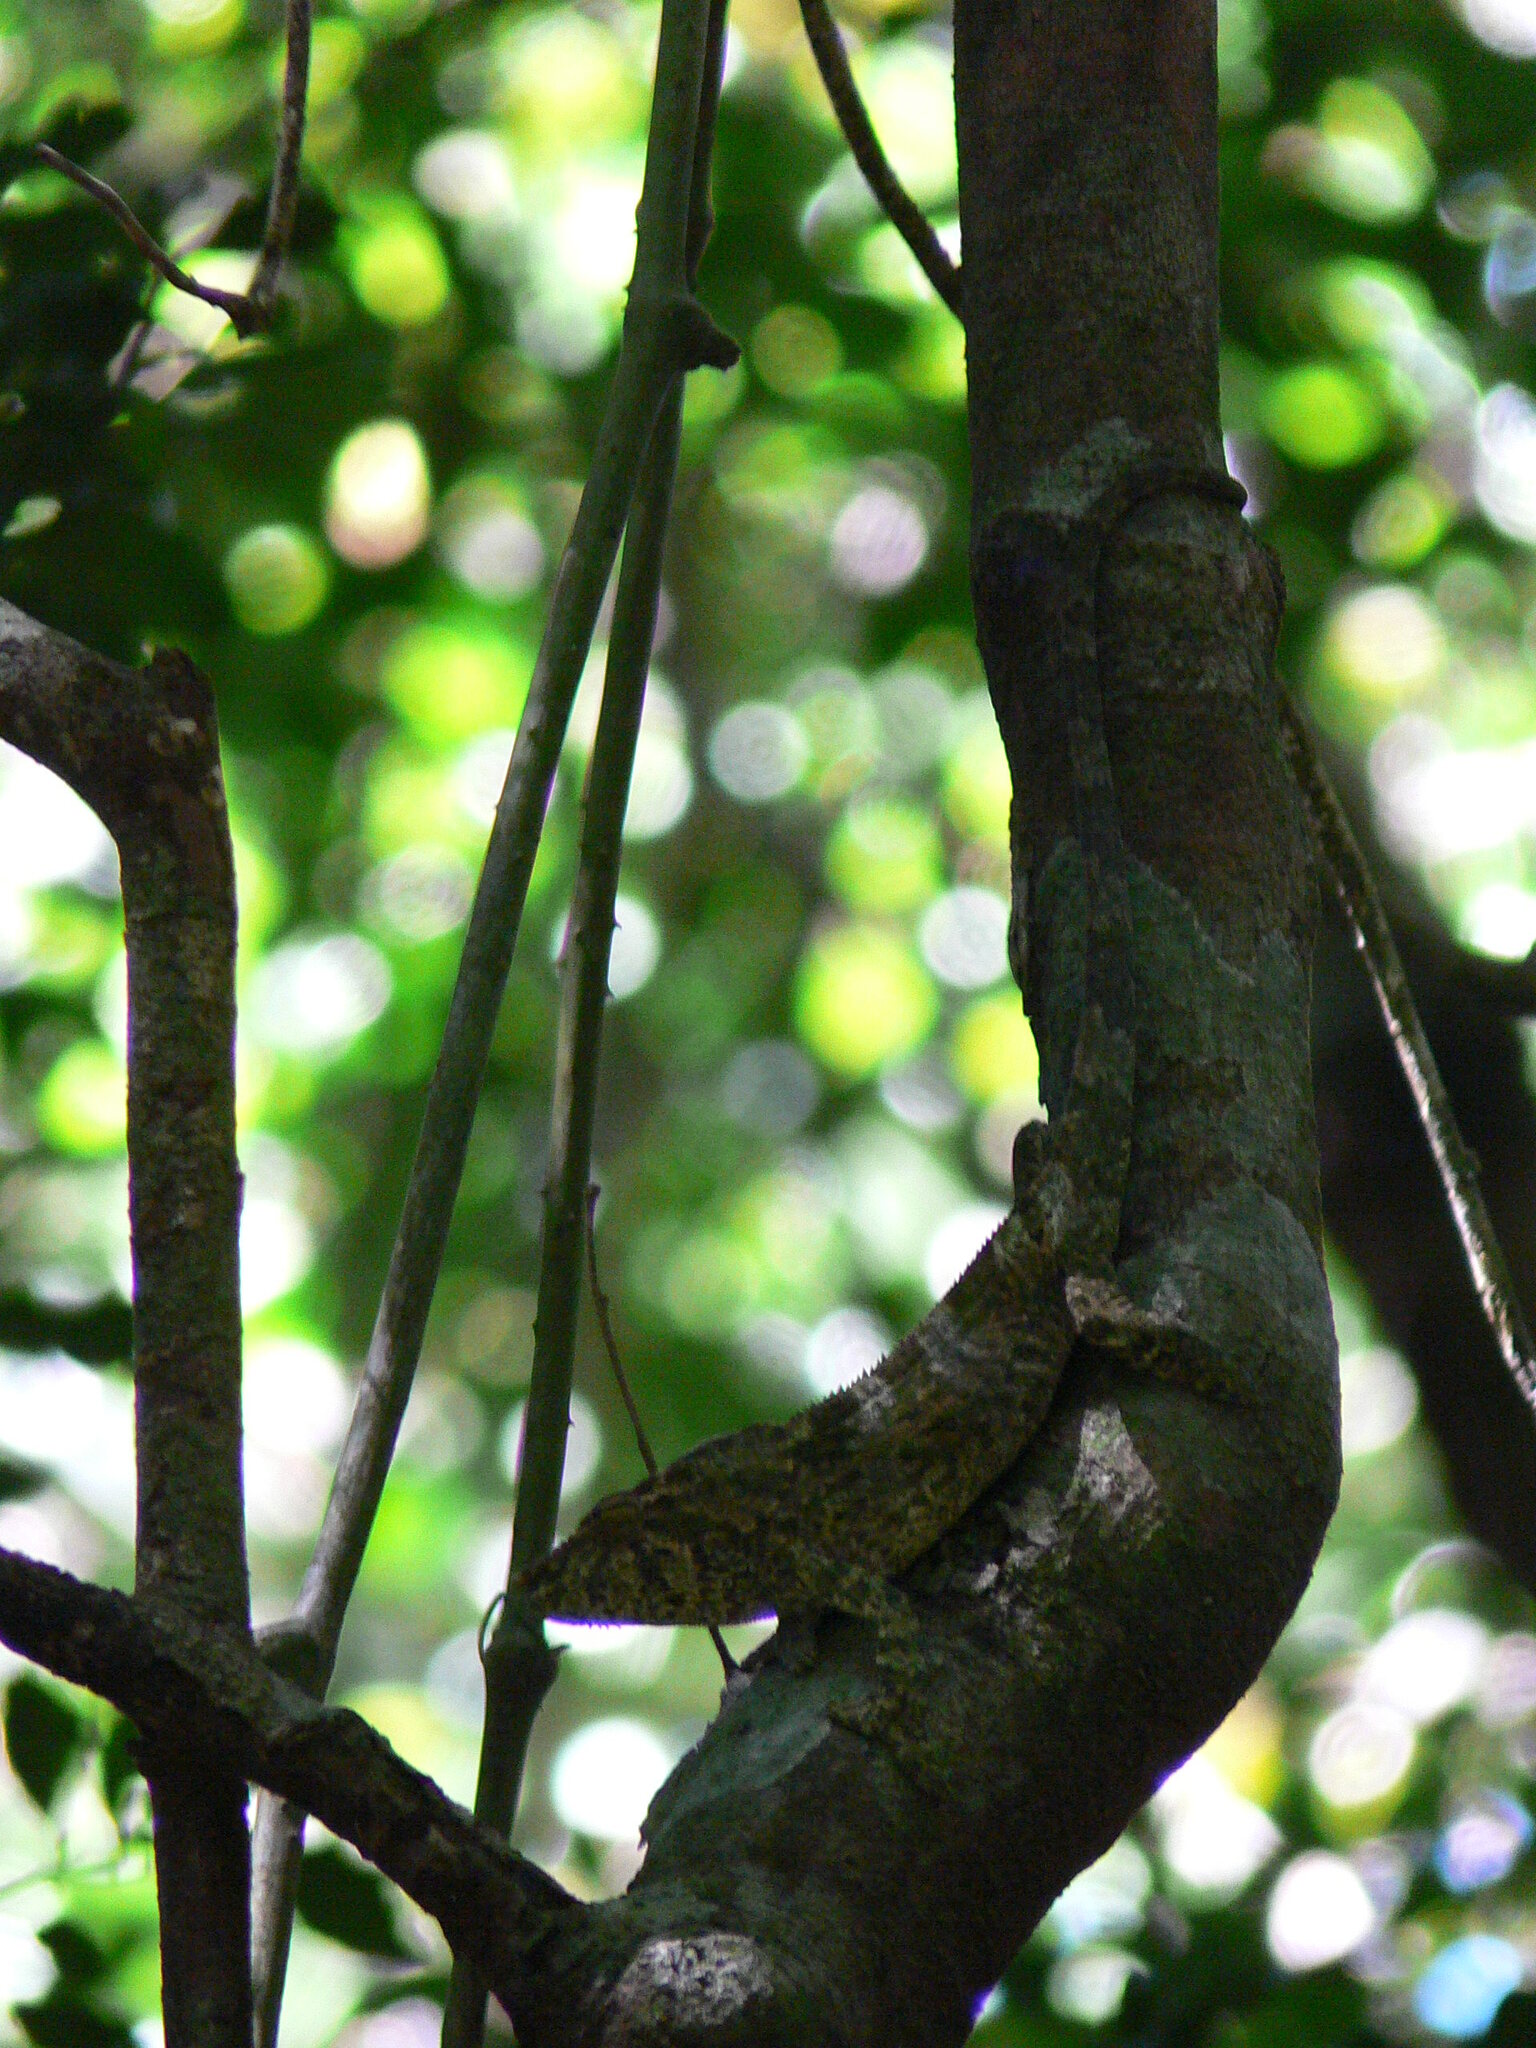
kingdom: Animalia
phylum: Chordata
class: Squamata
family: Chamaeleonidae
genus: Calumma
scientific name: Calumma amber
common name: Amber mountain chameleon
